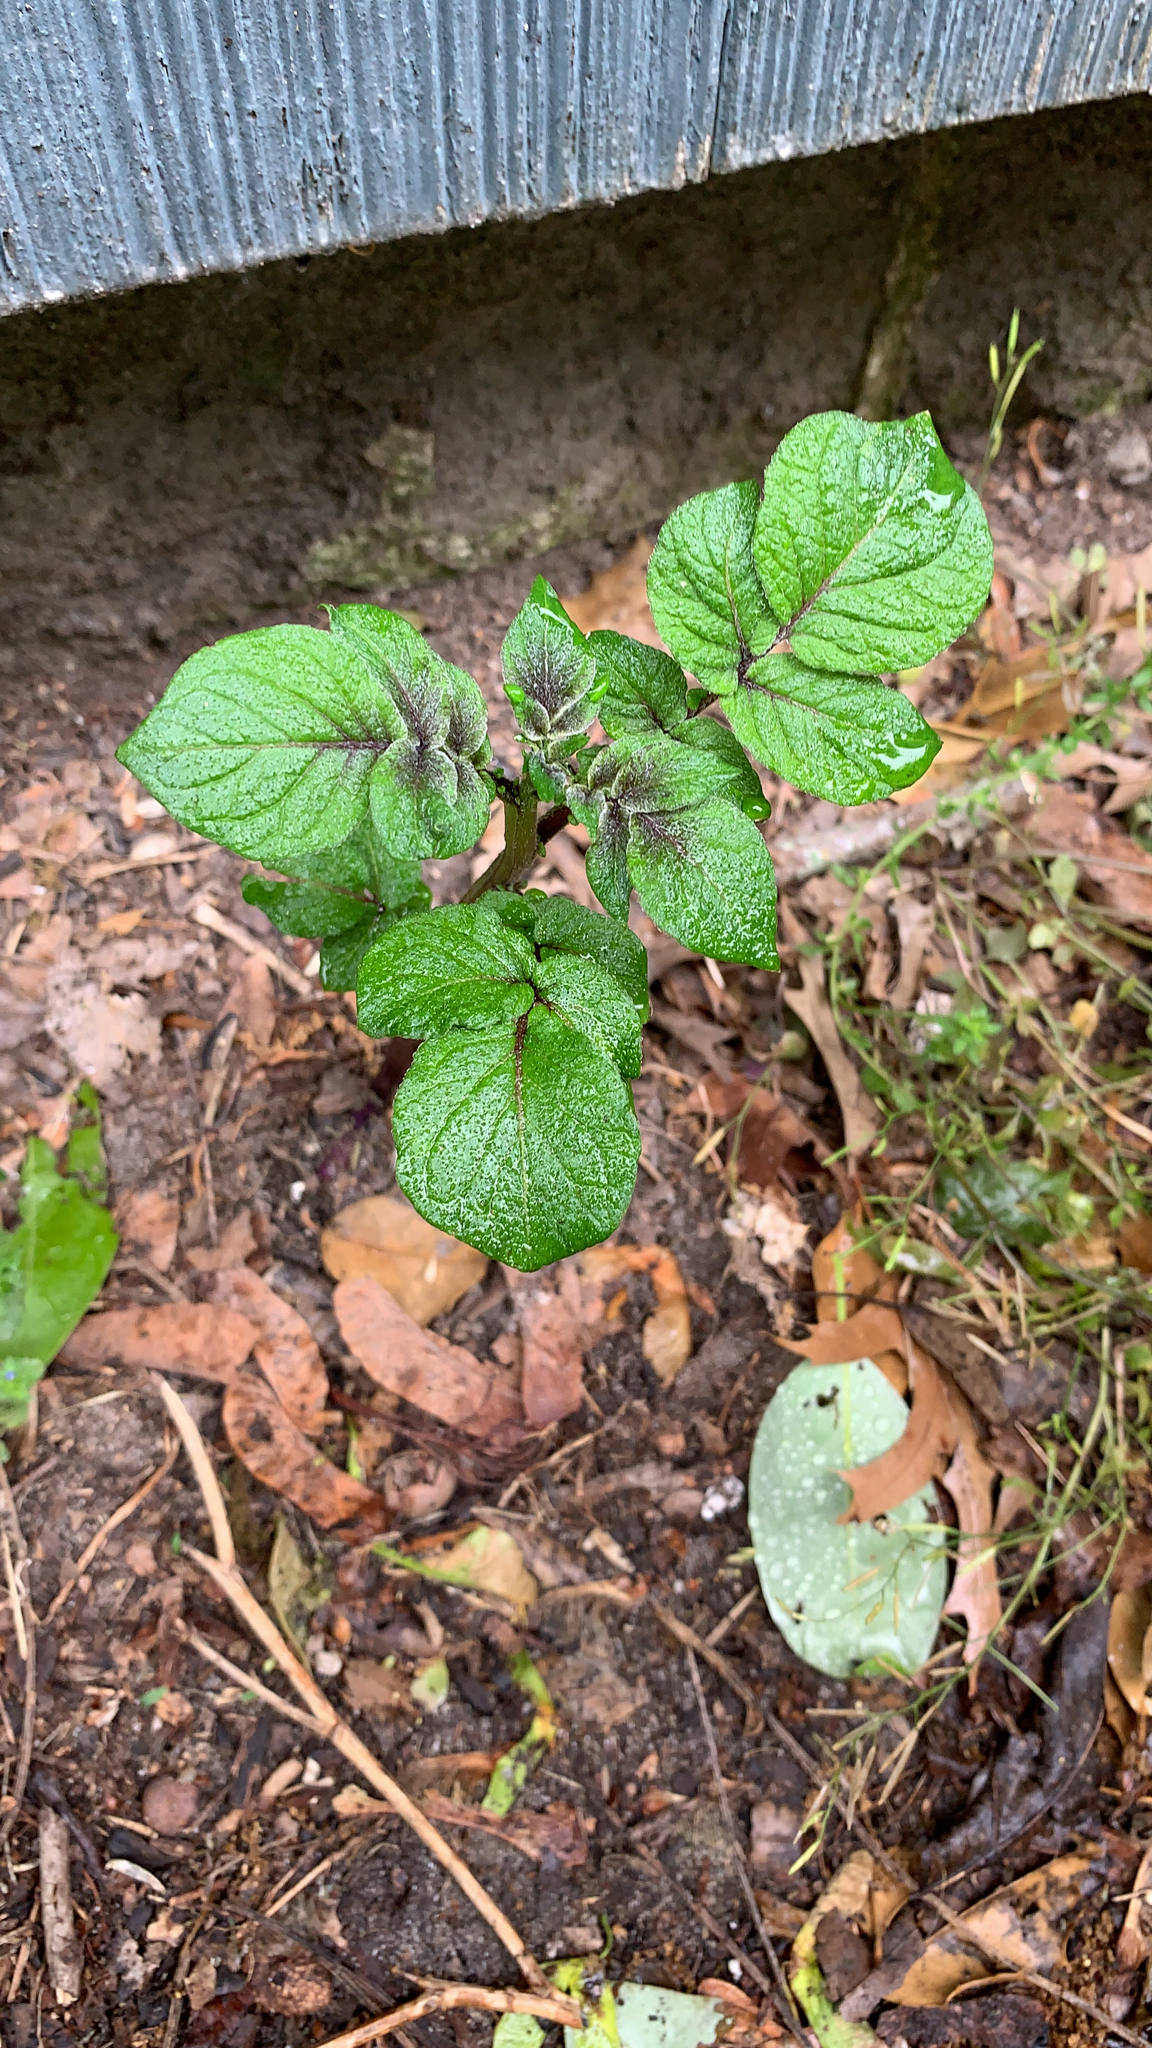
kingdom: Plantae
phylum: Tracheophyta
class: Magnoliopsida
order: Solanales
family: Solanaceae
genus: Solanum
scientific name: Solanum tuberosum
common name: Potato
